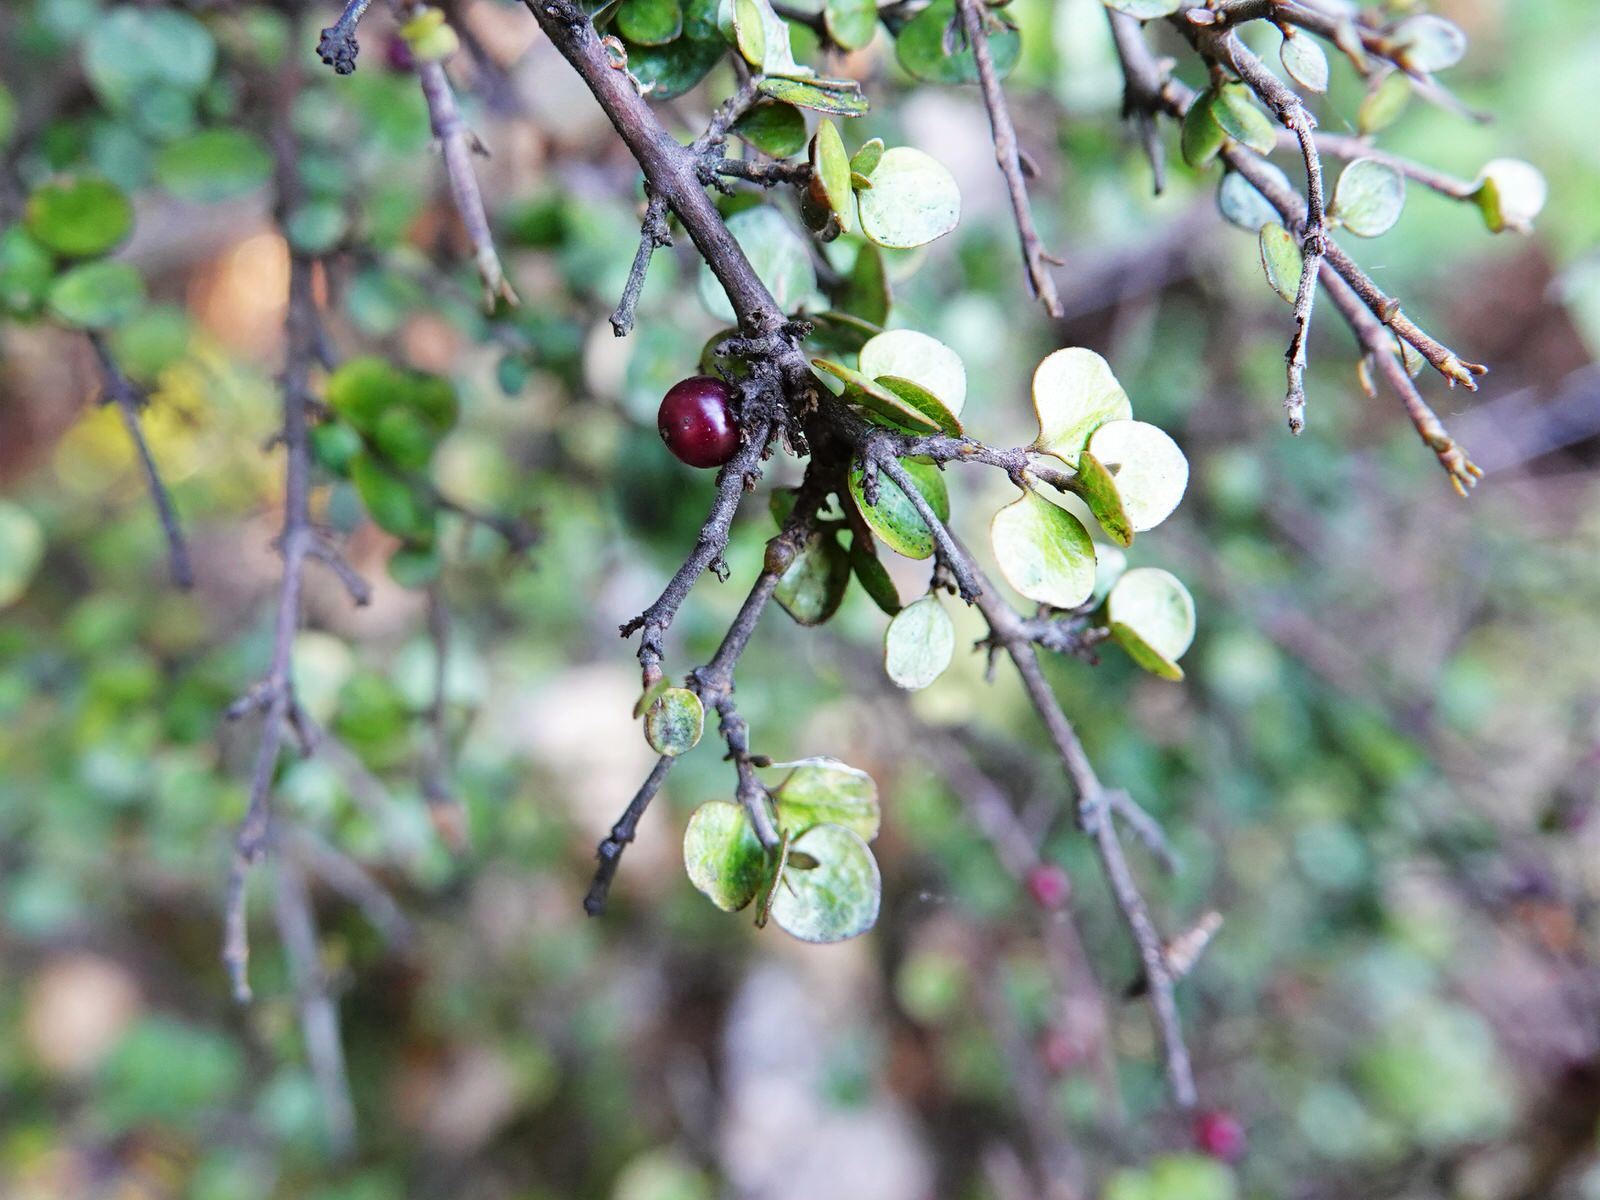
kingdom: Plantae
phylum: Tracheophyta
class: Magnoliopsida
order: Gentianales
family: Rubiaceae
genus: Coprosma
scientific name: Coprosma rhamnoides
